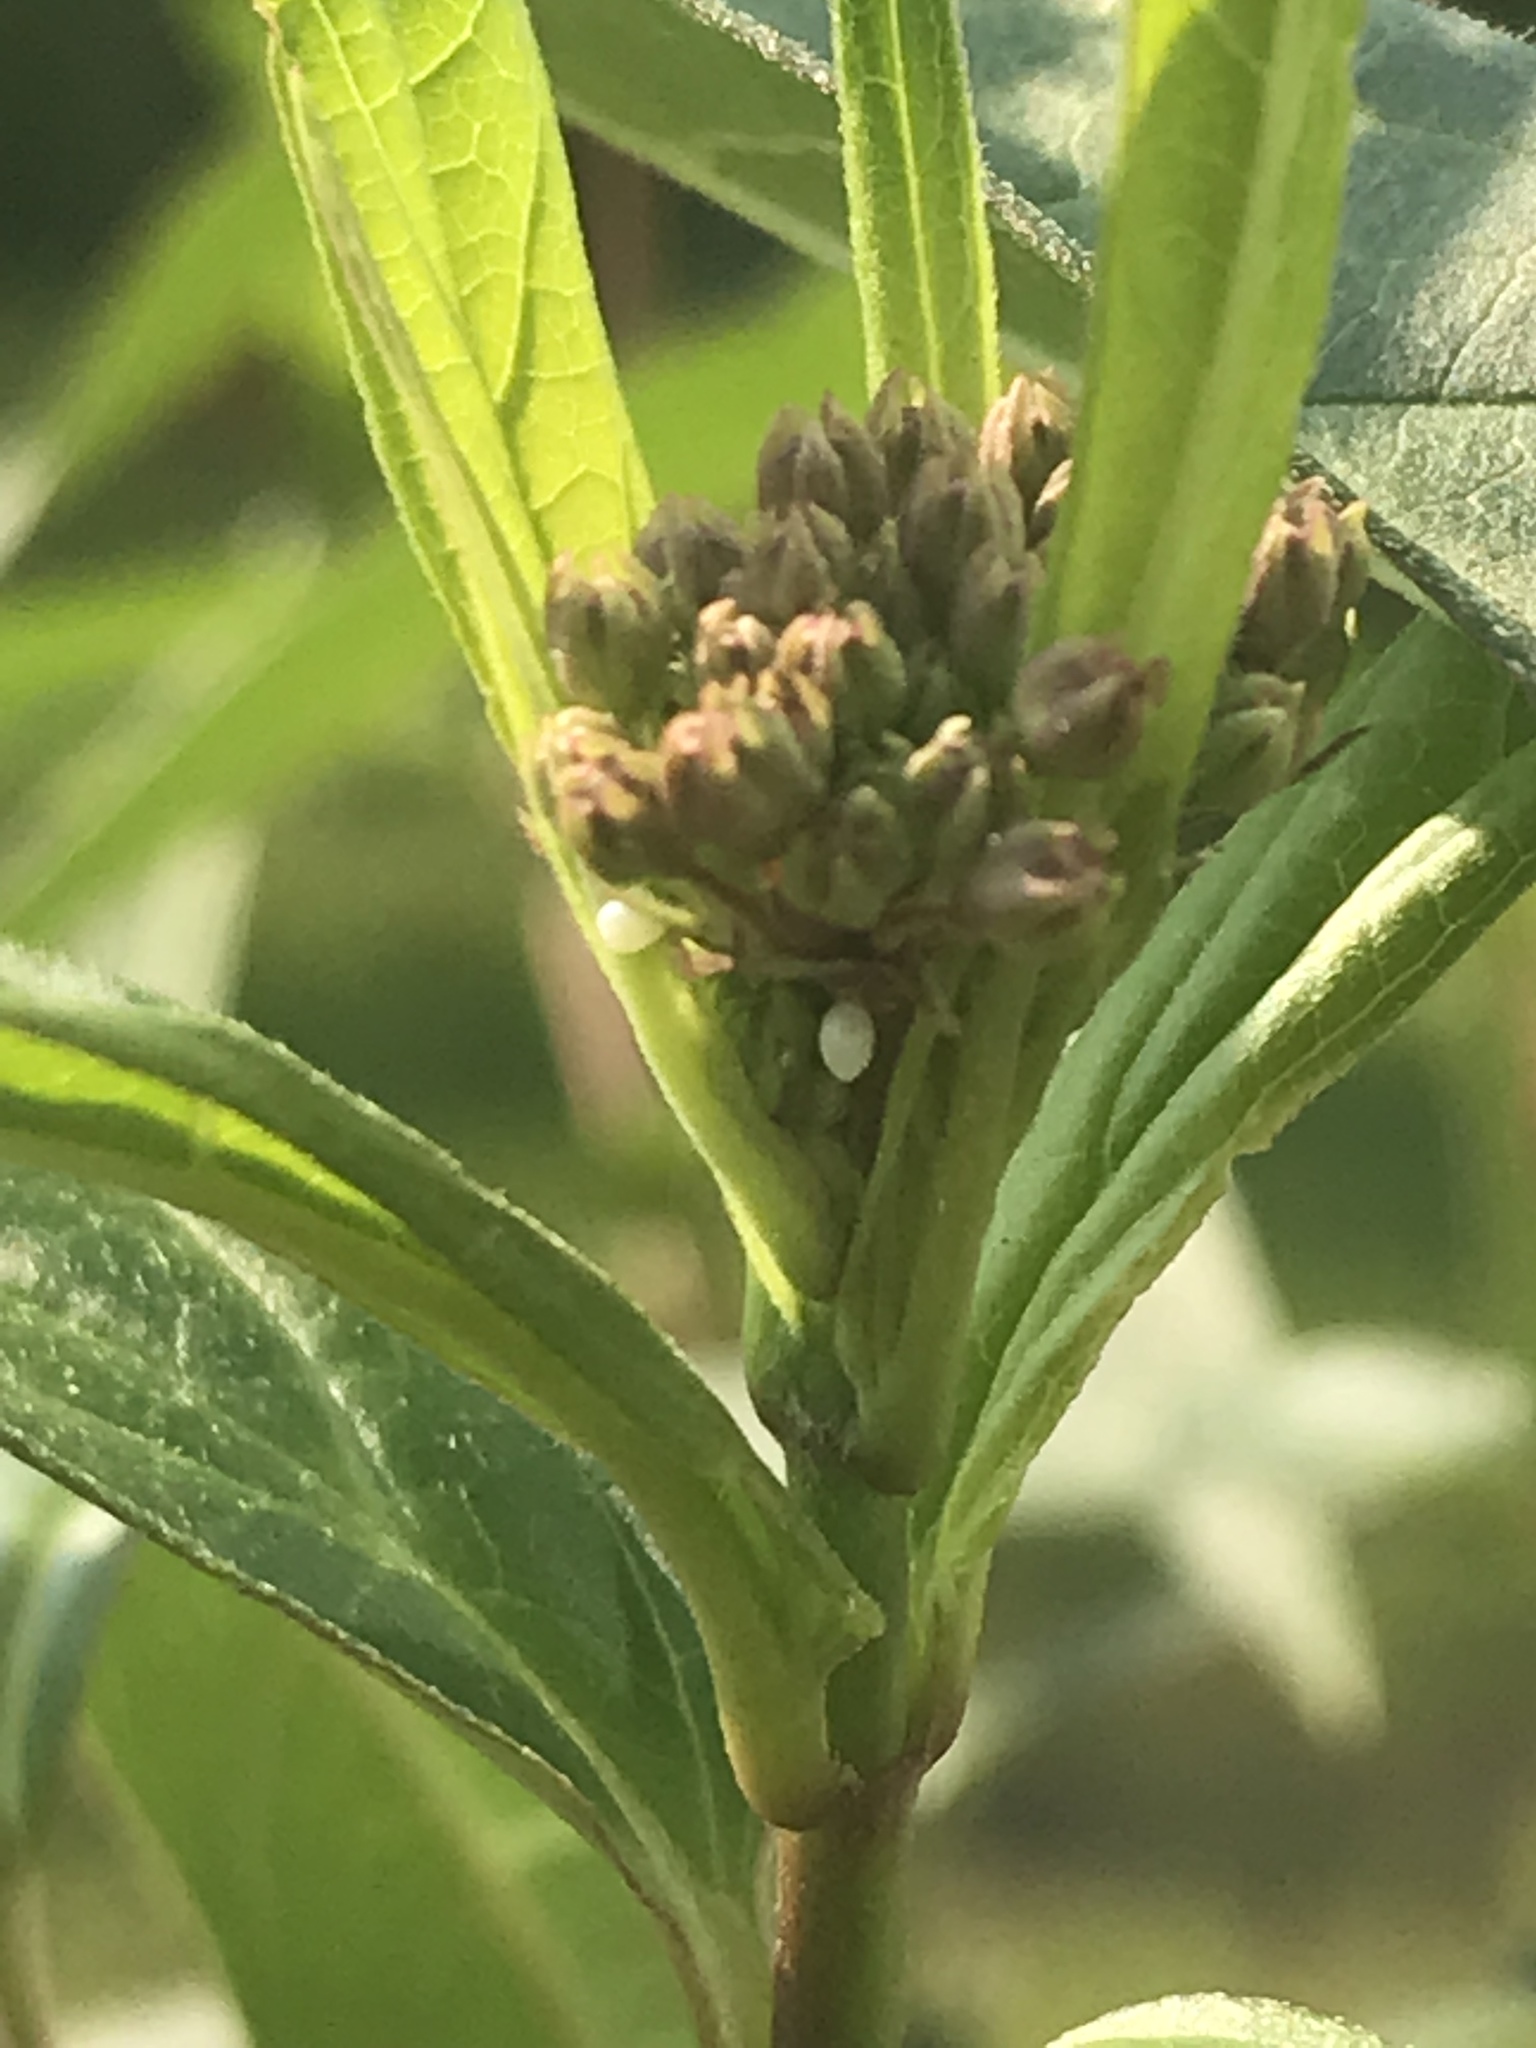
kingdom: Animalia
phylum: Arthropoda
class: Insecta
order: Lepidoptera
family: Nymphalidae
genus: Danaus
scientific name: Danaus plexippus
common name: Monarch
